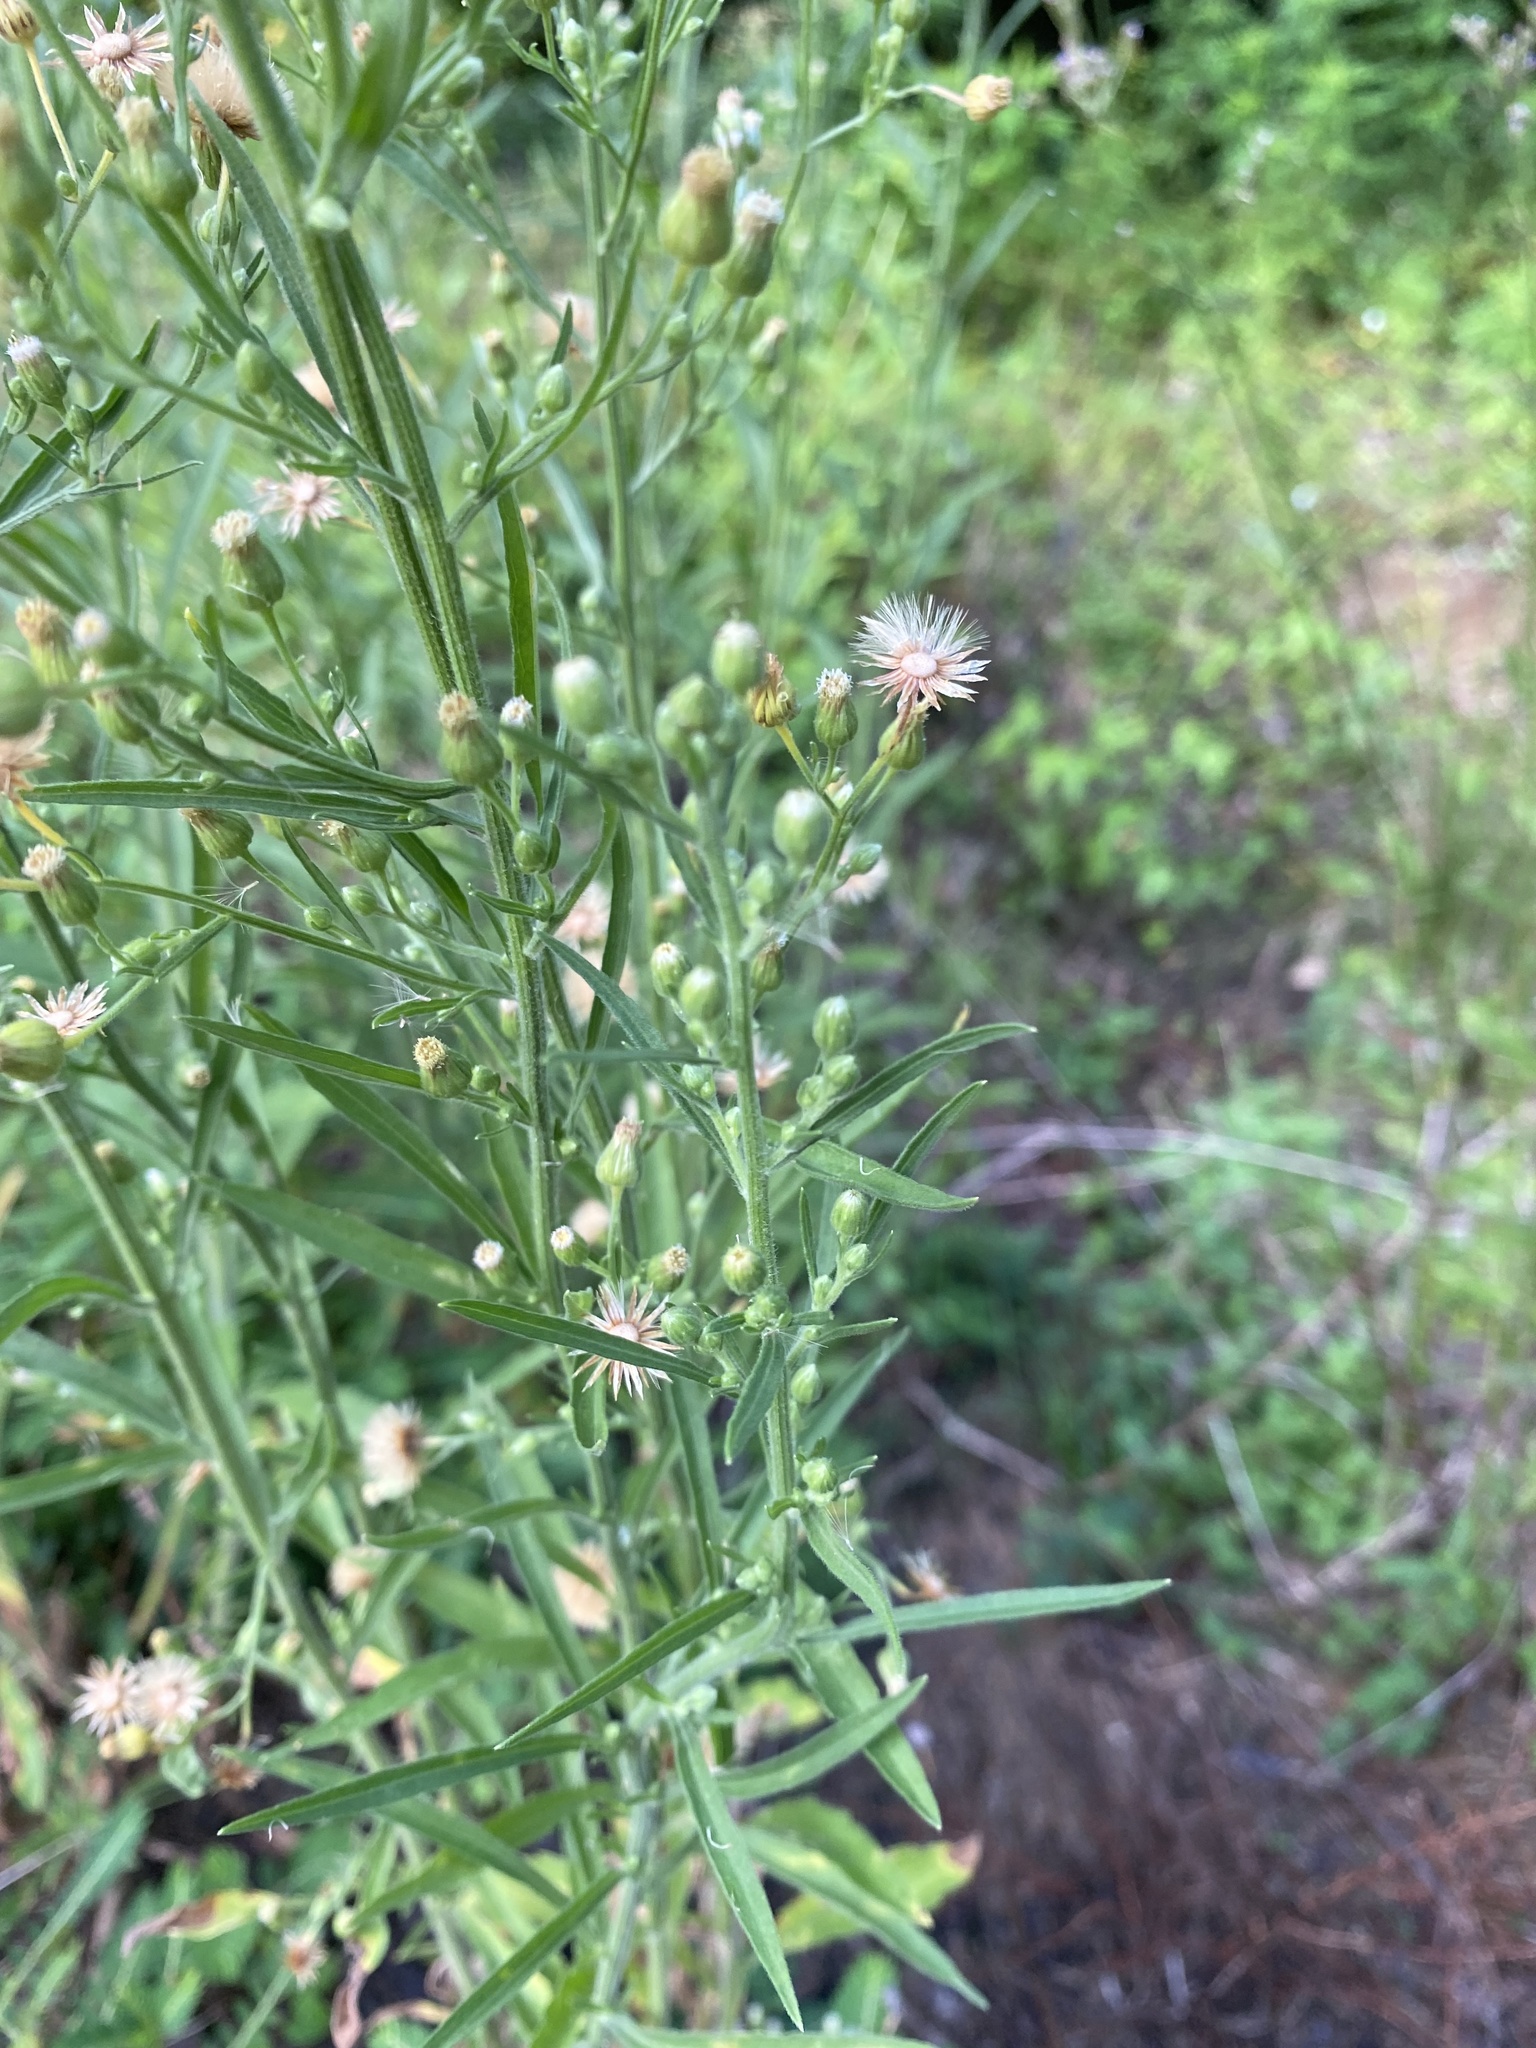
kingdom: Plantae
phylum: Tracheophyta
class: Magnoliopsida
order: Asterales
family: Asteraceae
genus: Erigeron
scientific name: Erigeron sumatrensis
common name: Daisy
